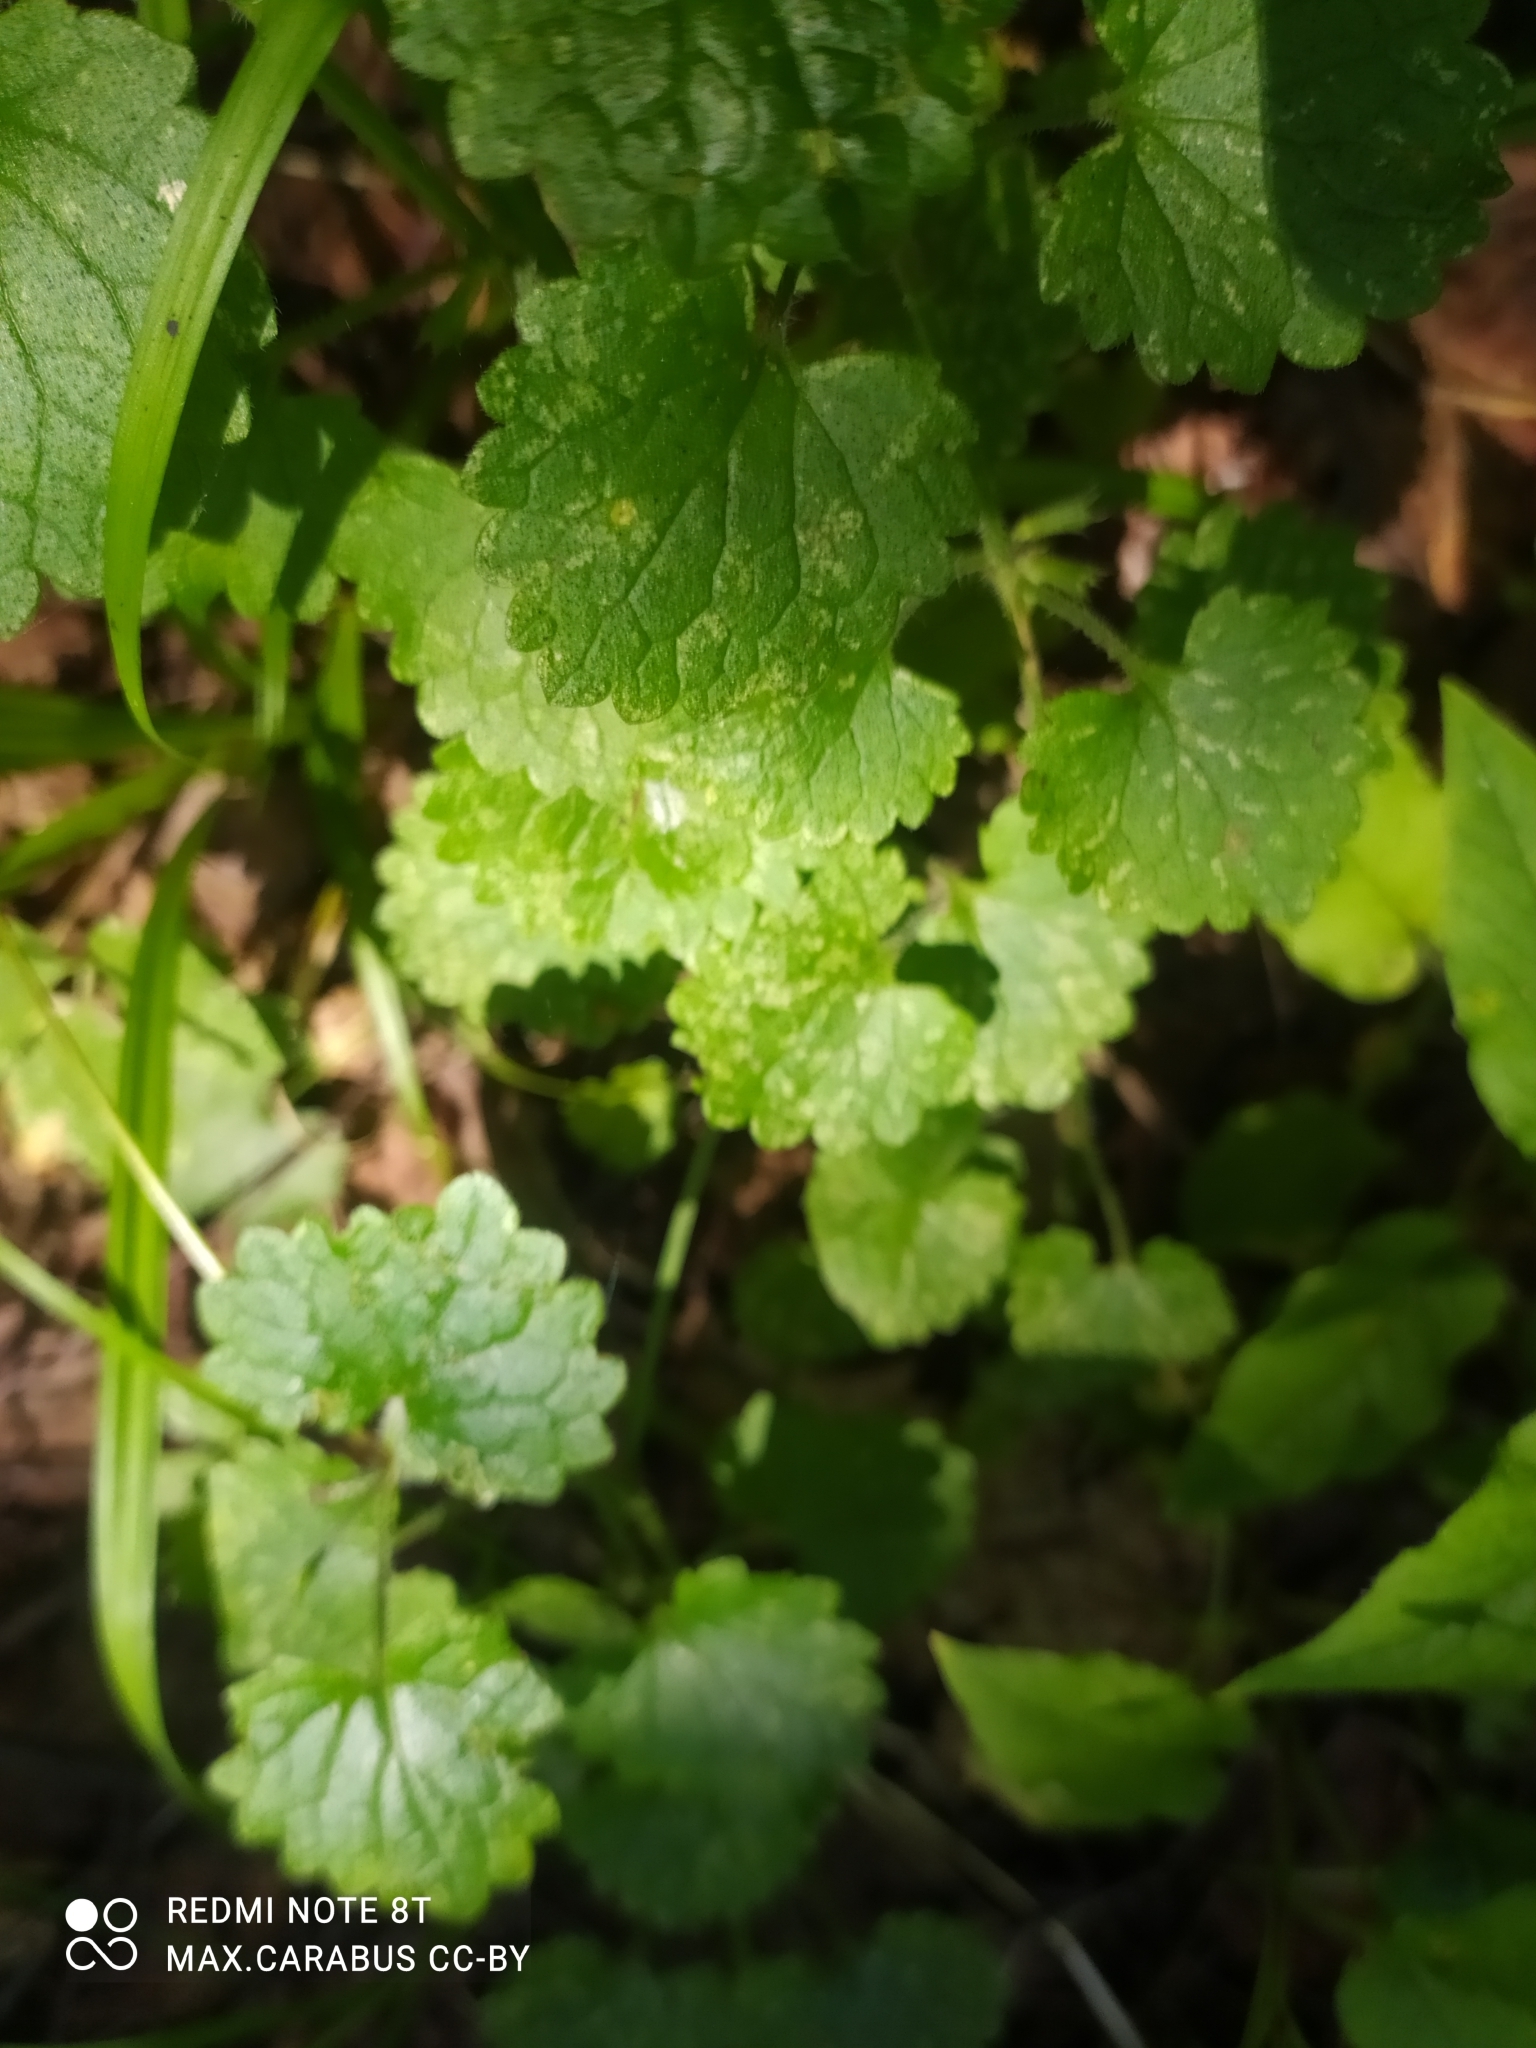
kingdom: Plantae
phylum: Tracheophyta
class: Magnoliopsida
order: Lamiales
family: Lamiaceae
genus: Glechoma
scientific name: Glechoma hederacea
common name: Ground ivy
